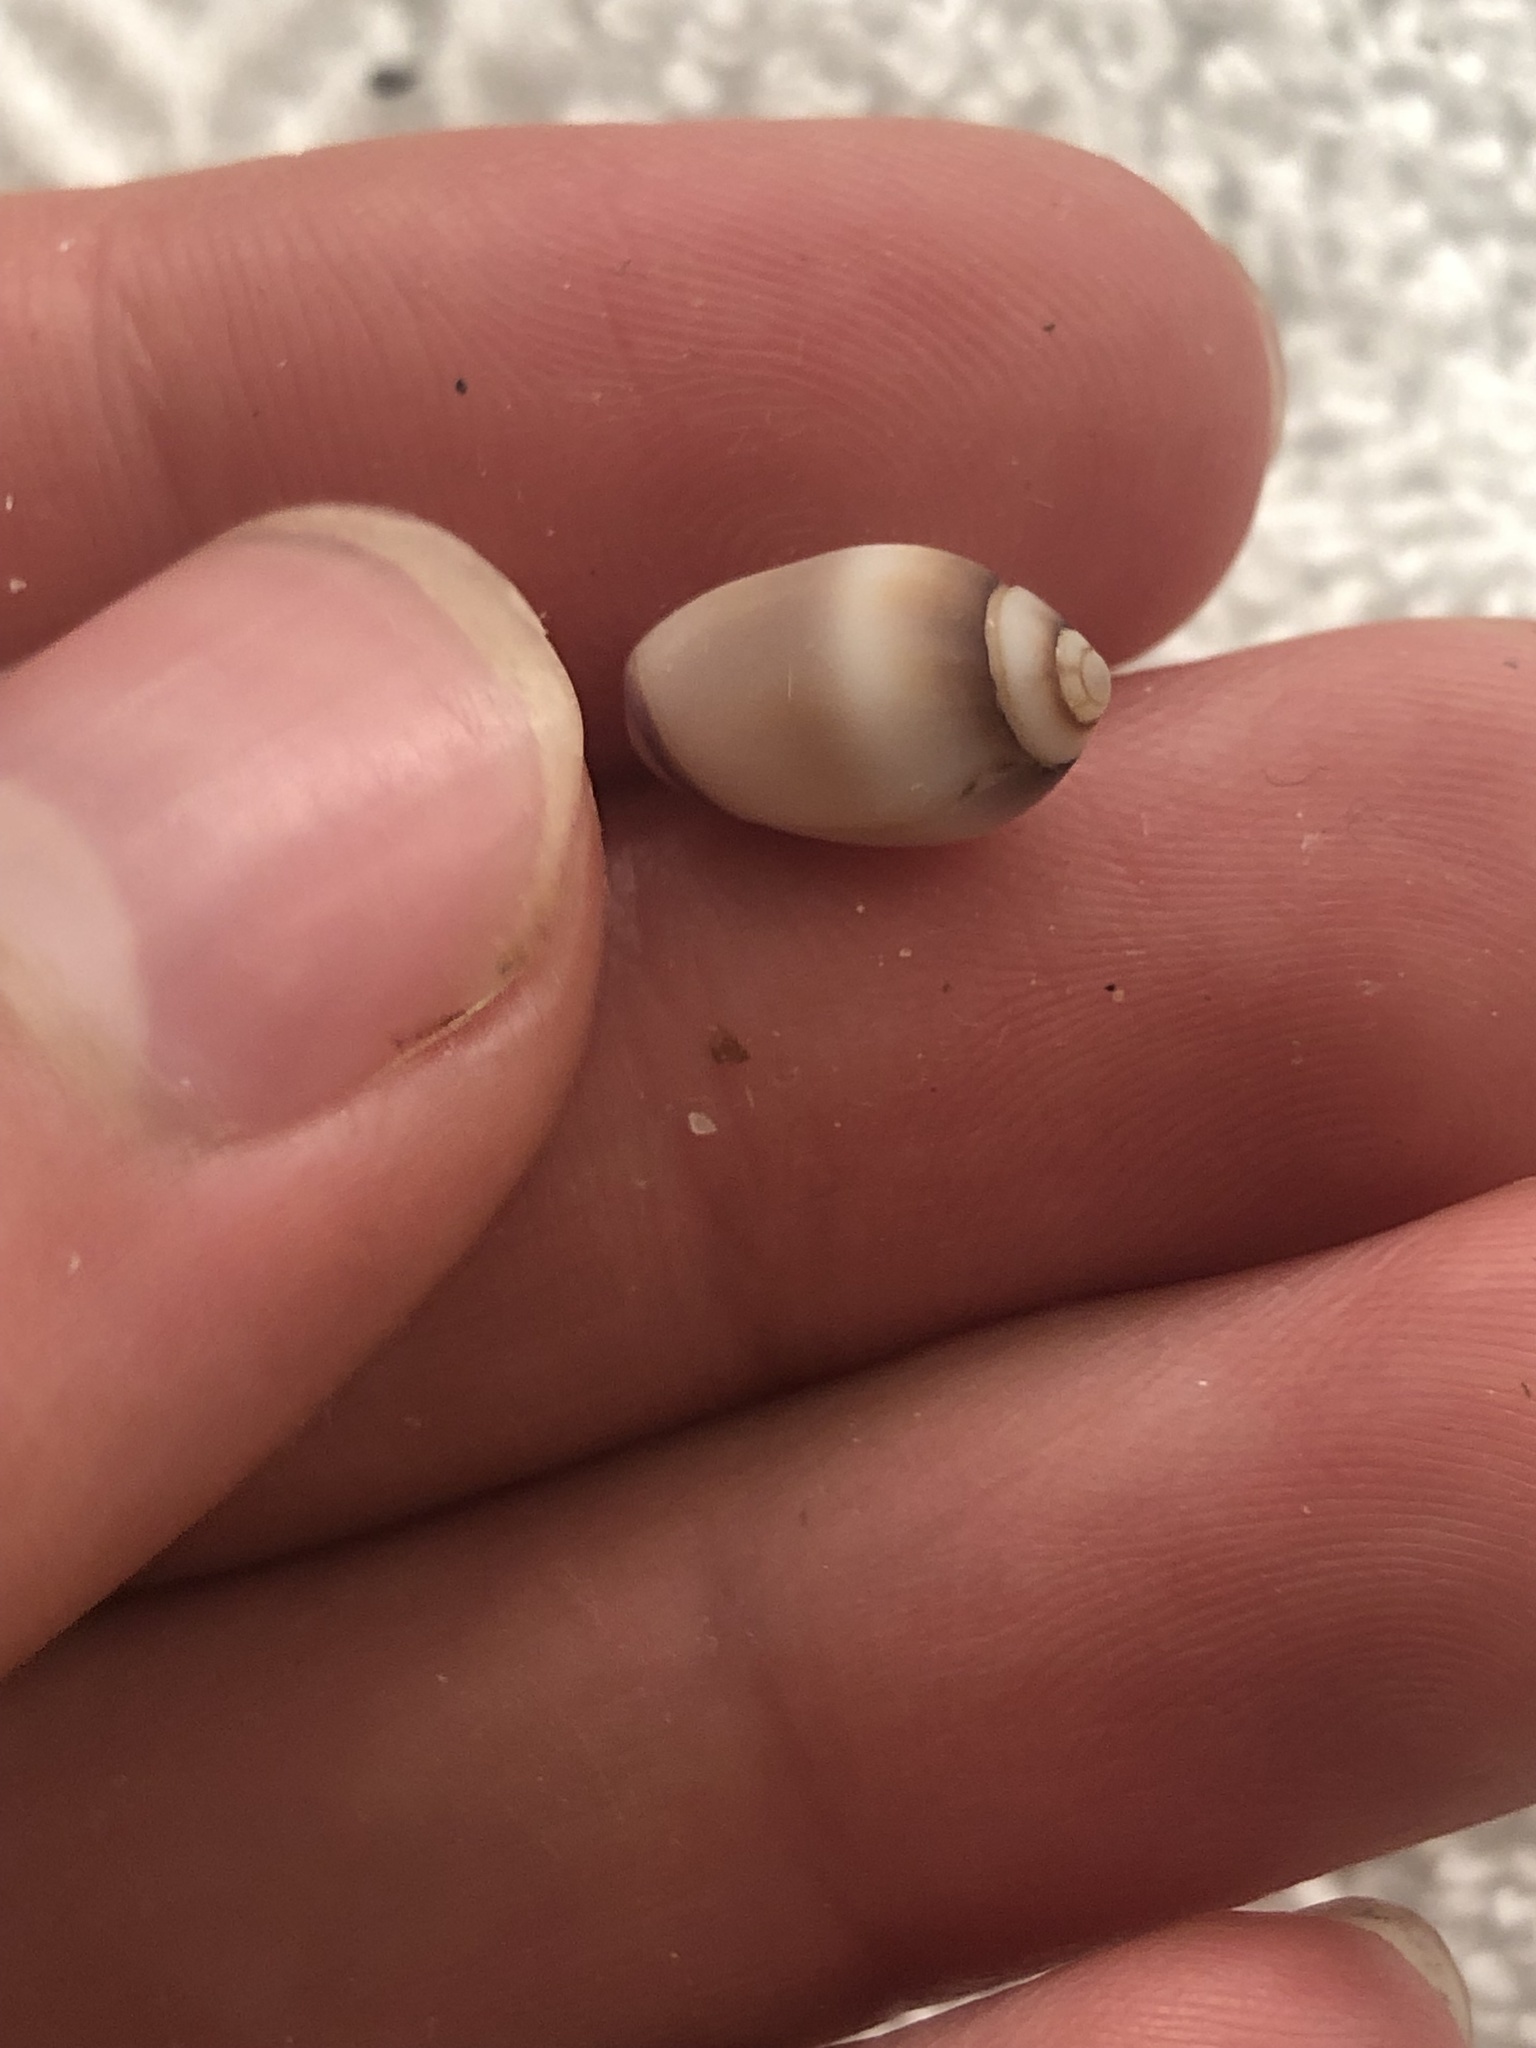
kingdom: Animalia
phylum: Mollusca
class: Gastropoda
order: Neogastropoda
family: Olividae
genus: Callianax
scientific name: Callianax biplicata
